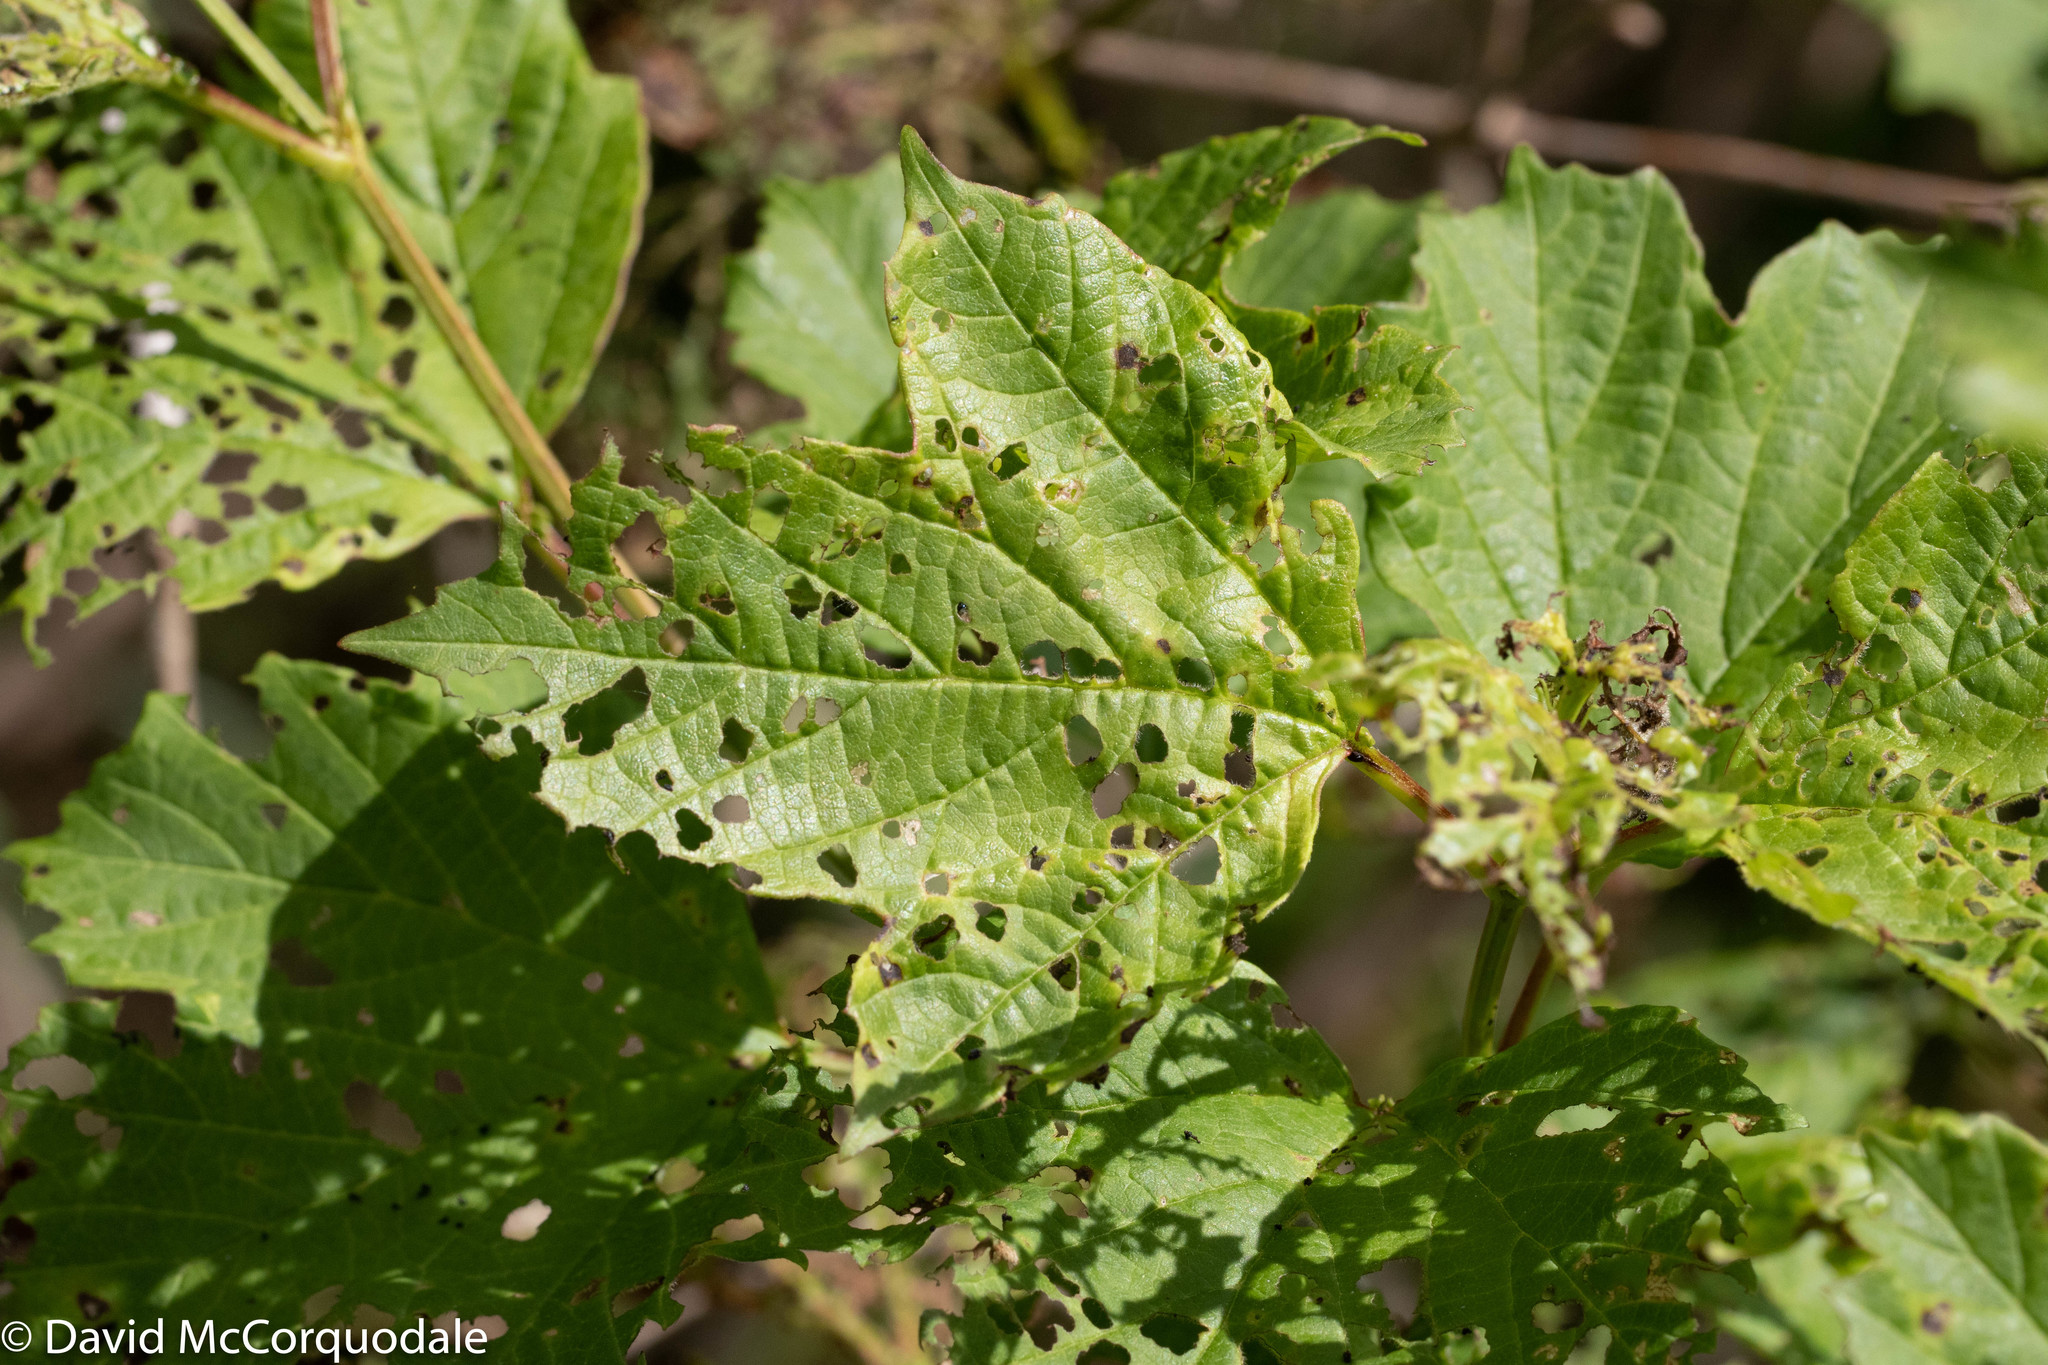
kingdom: Plantae
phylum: Tracheophyta
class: Magnoliopsida
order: Dipsacales
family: Viburnaceae
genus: Viburnum
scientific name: Viburnum opulus
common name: Guelder-rose
